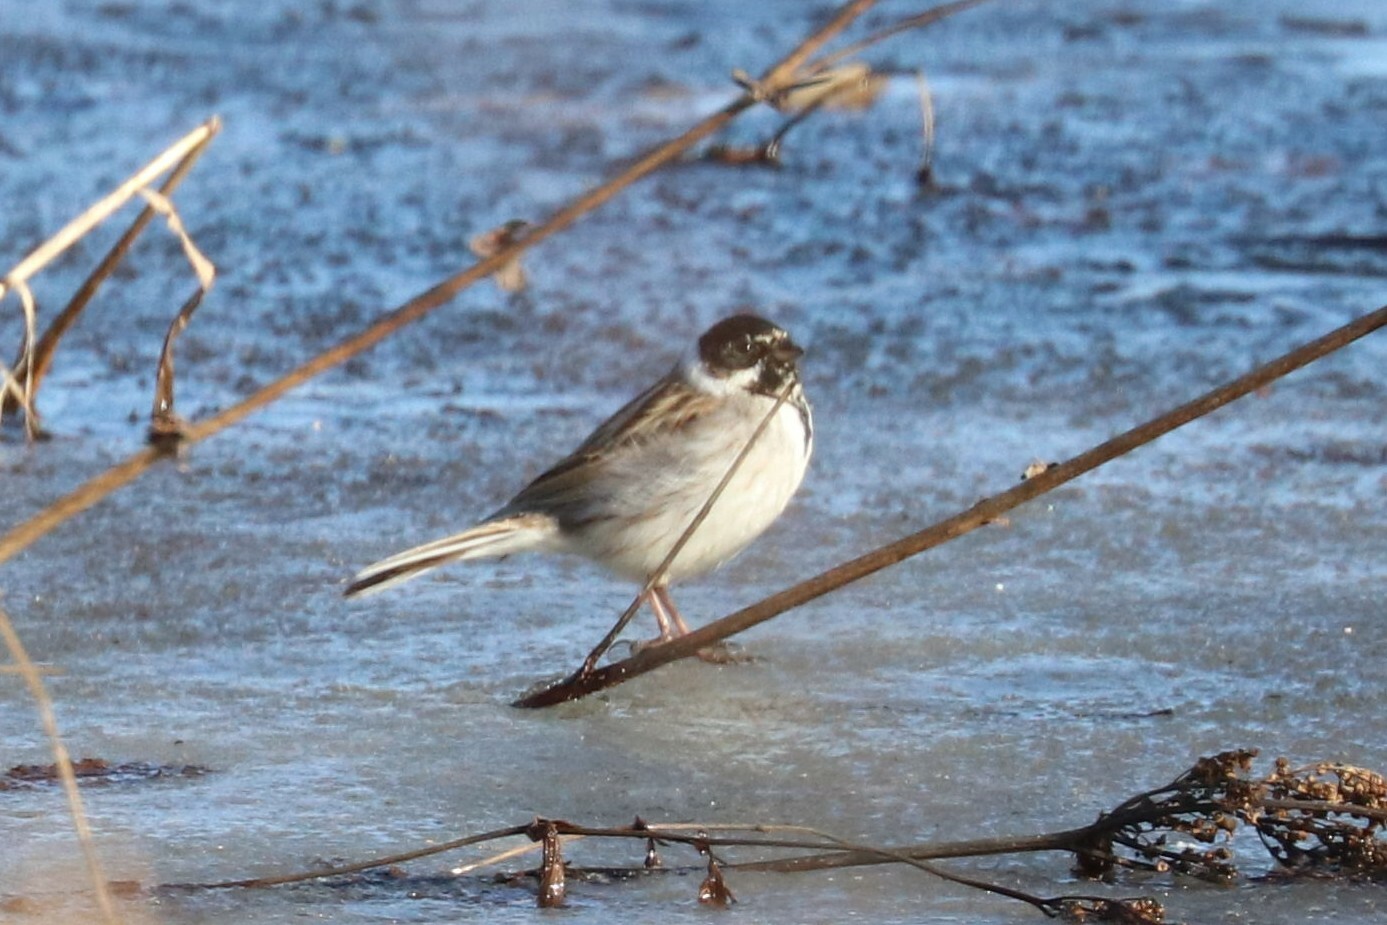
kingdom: Animalia
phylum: Chordata
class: Aves
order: Passeriformes
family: Emberizidae
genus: Emberiza
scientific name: Emberiza schoeniclus
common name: Reed bunting
